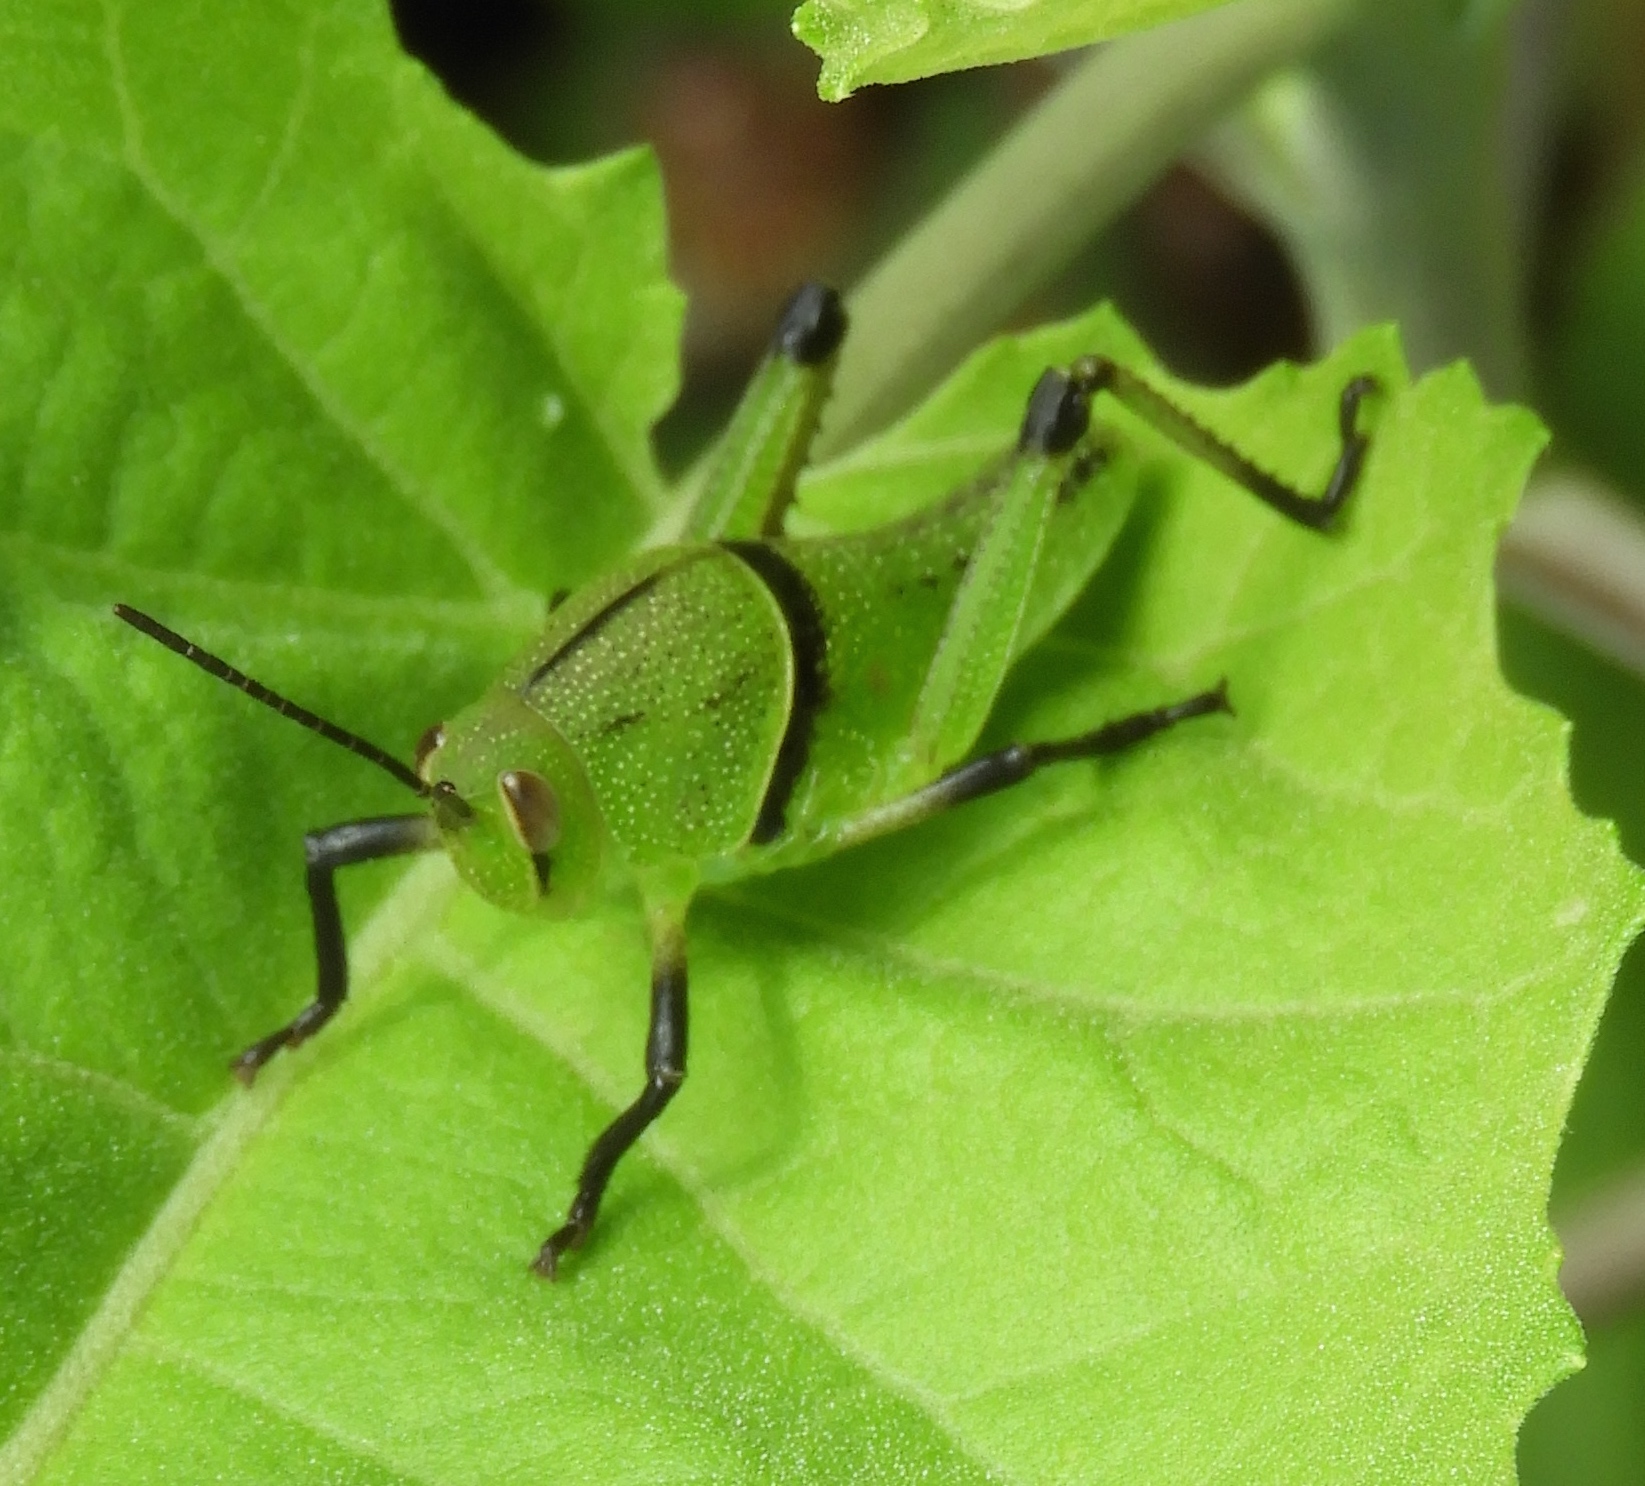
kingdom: Animalia
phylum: Arthropoda
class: Insecta
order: Orthoptera
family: Romaleidae
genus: Brachystola
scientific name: Brachystola
